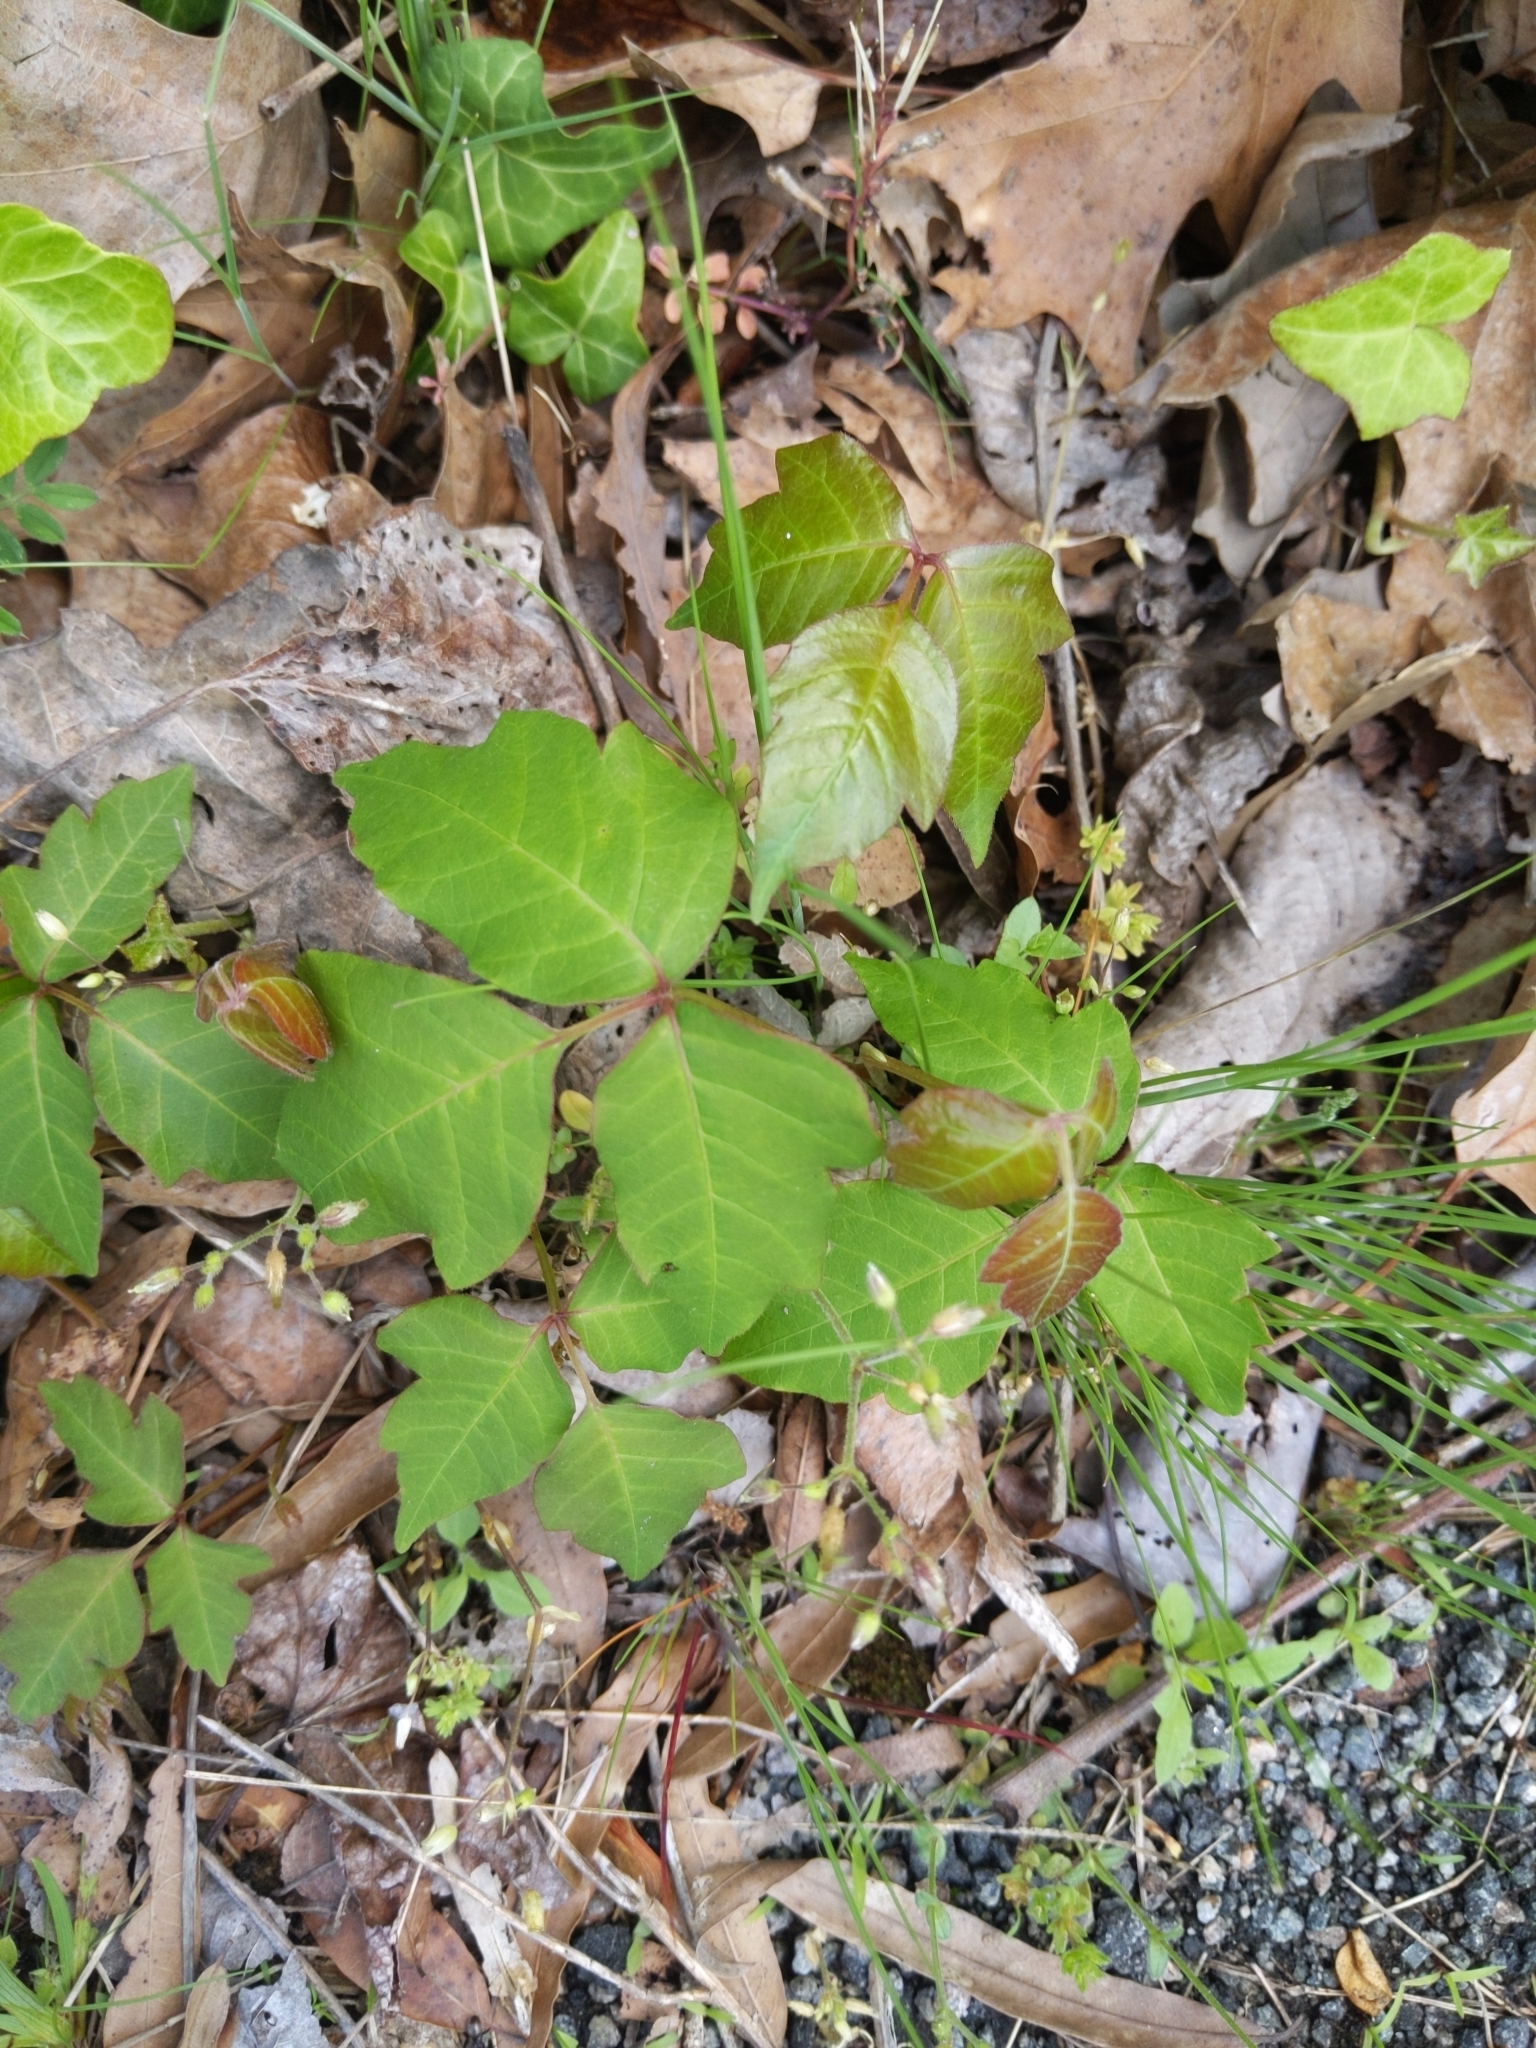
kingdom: Plantae
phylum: Tracheophyta
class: Magnoliopsida
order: Sapindales
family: Anacardiaceae
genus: Toxicodendron
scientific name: Toxicodendron radicans
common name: Poison ivy
